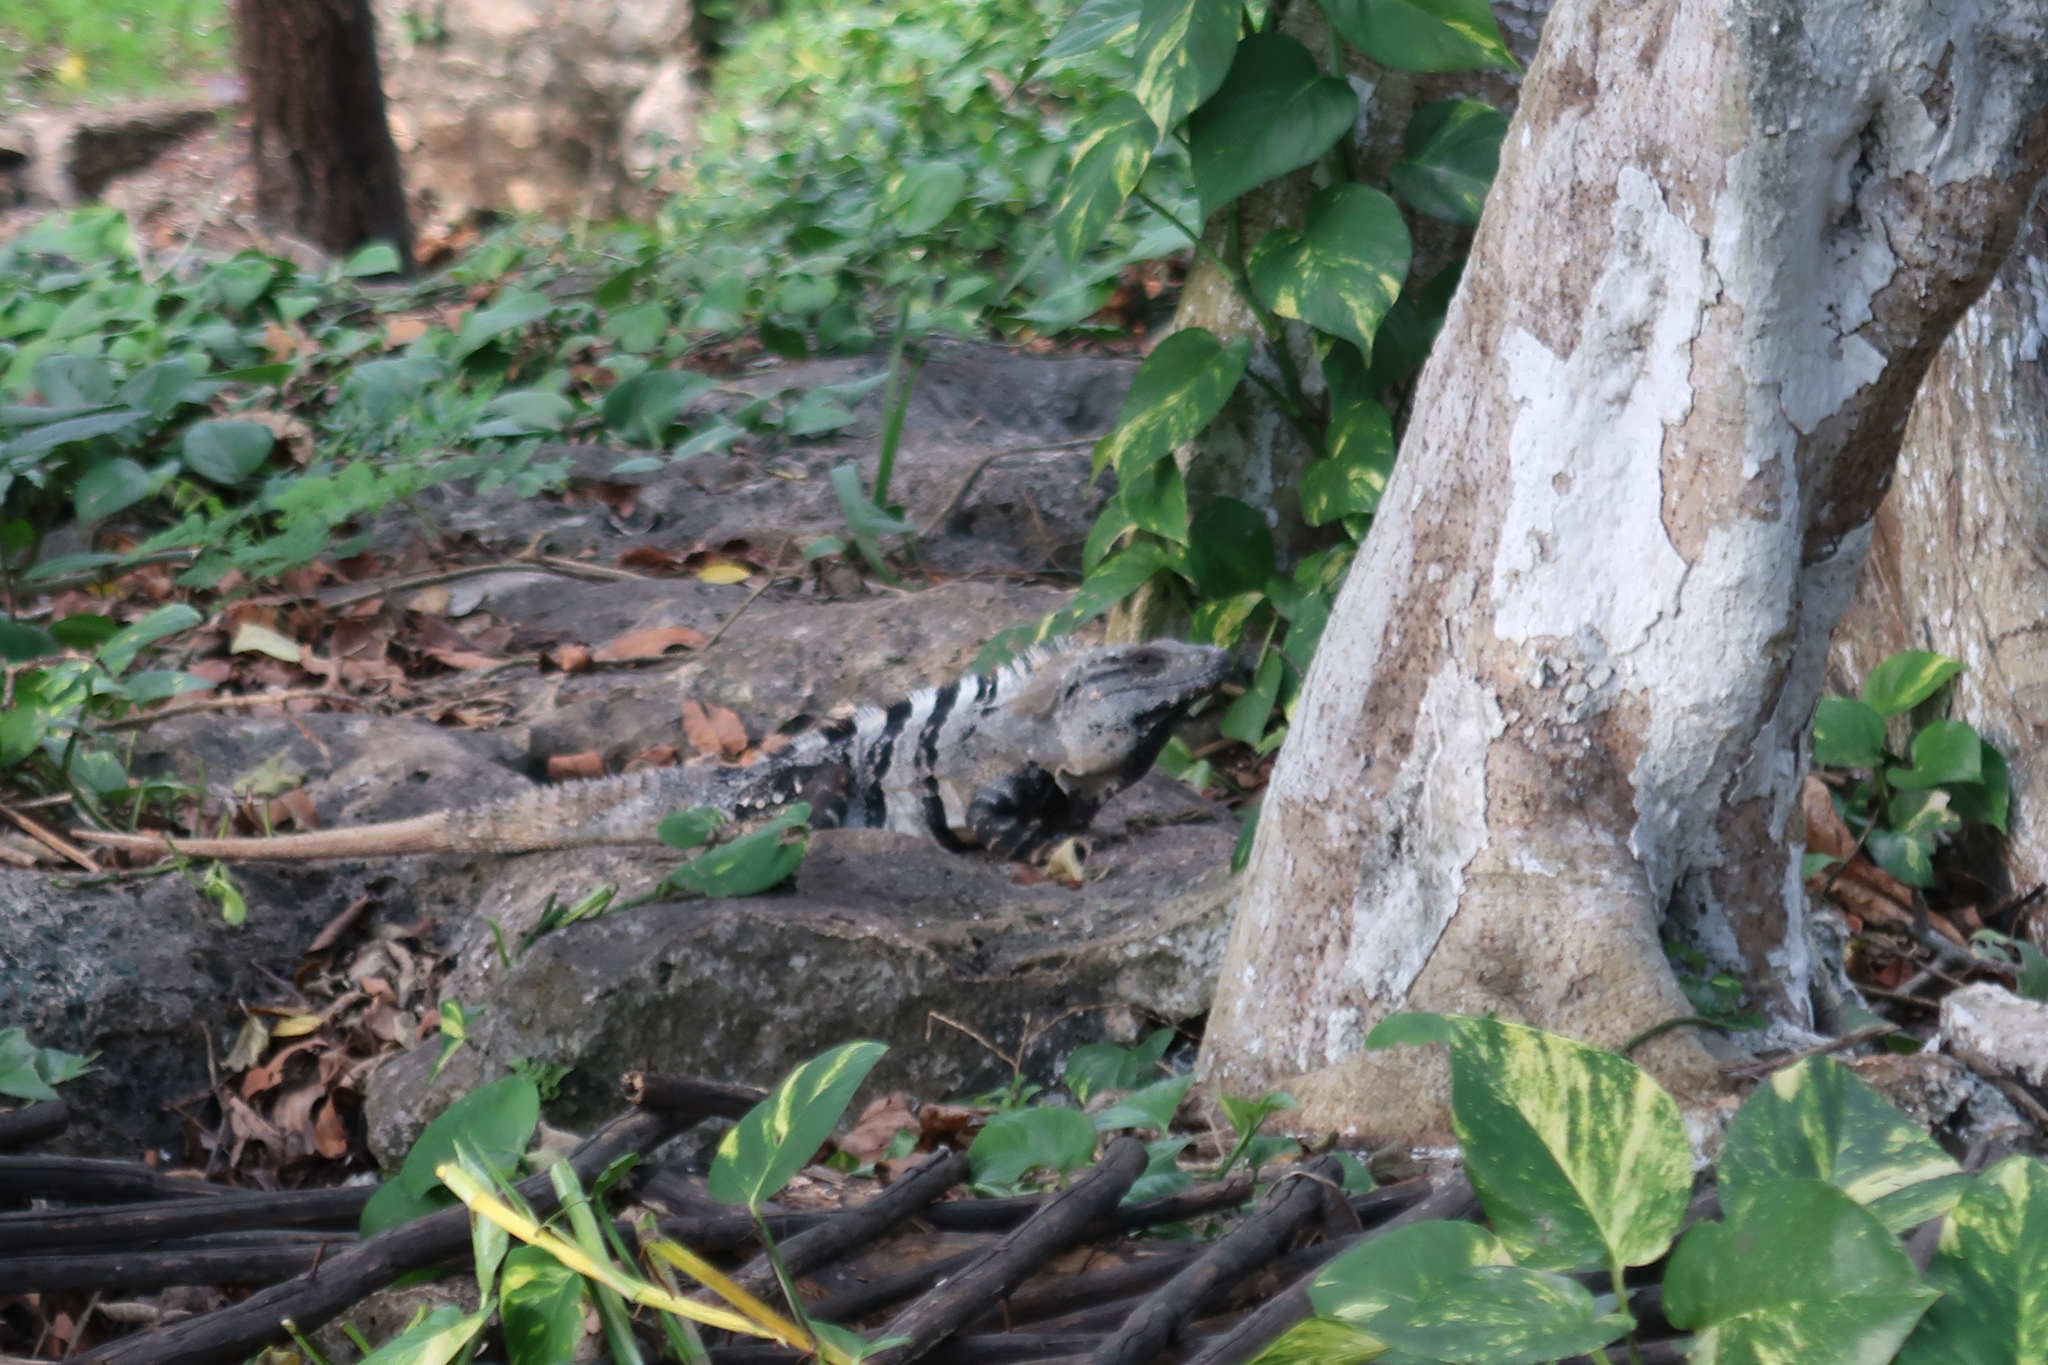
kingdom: Animalia
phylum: Chordata
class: Squamata
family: Iguanidae
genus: Ctenosaura
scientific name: Ctenosaura similis
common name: Black spiny-tailed iguana
